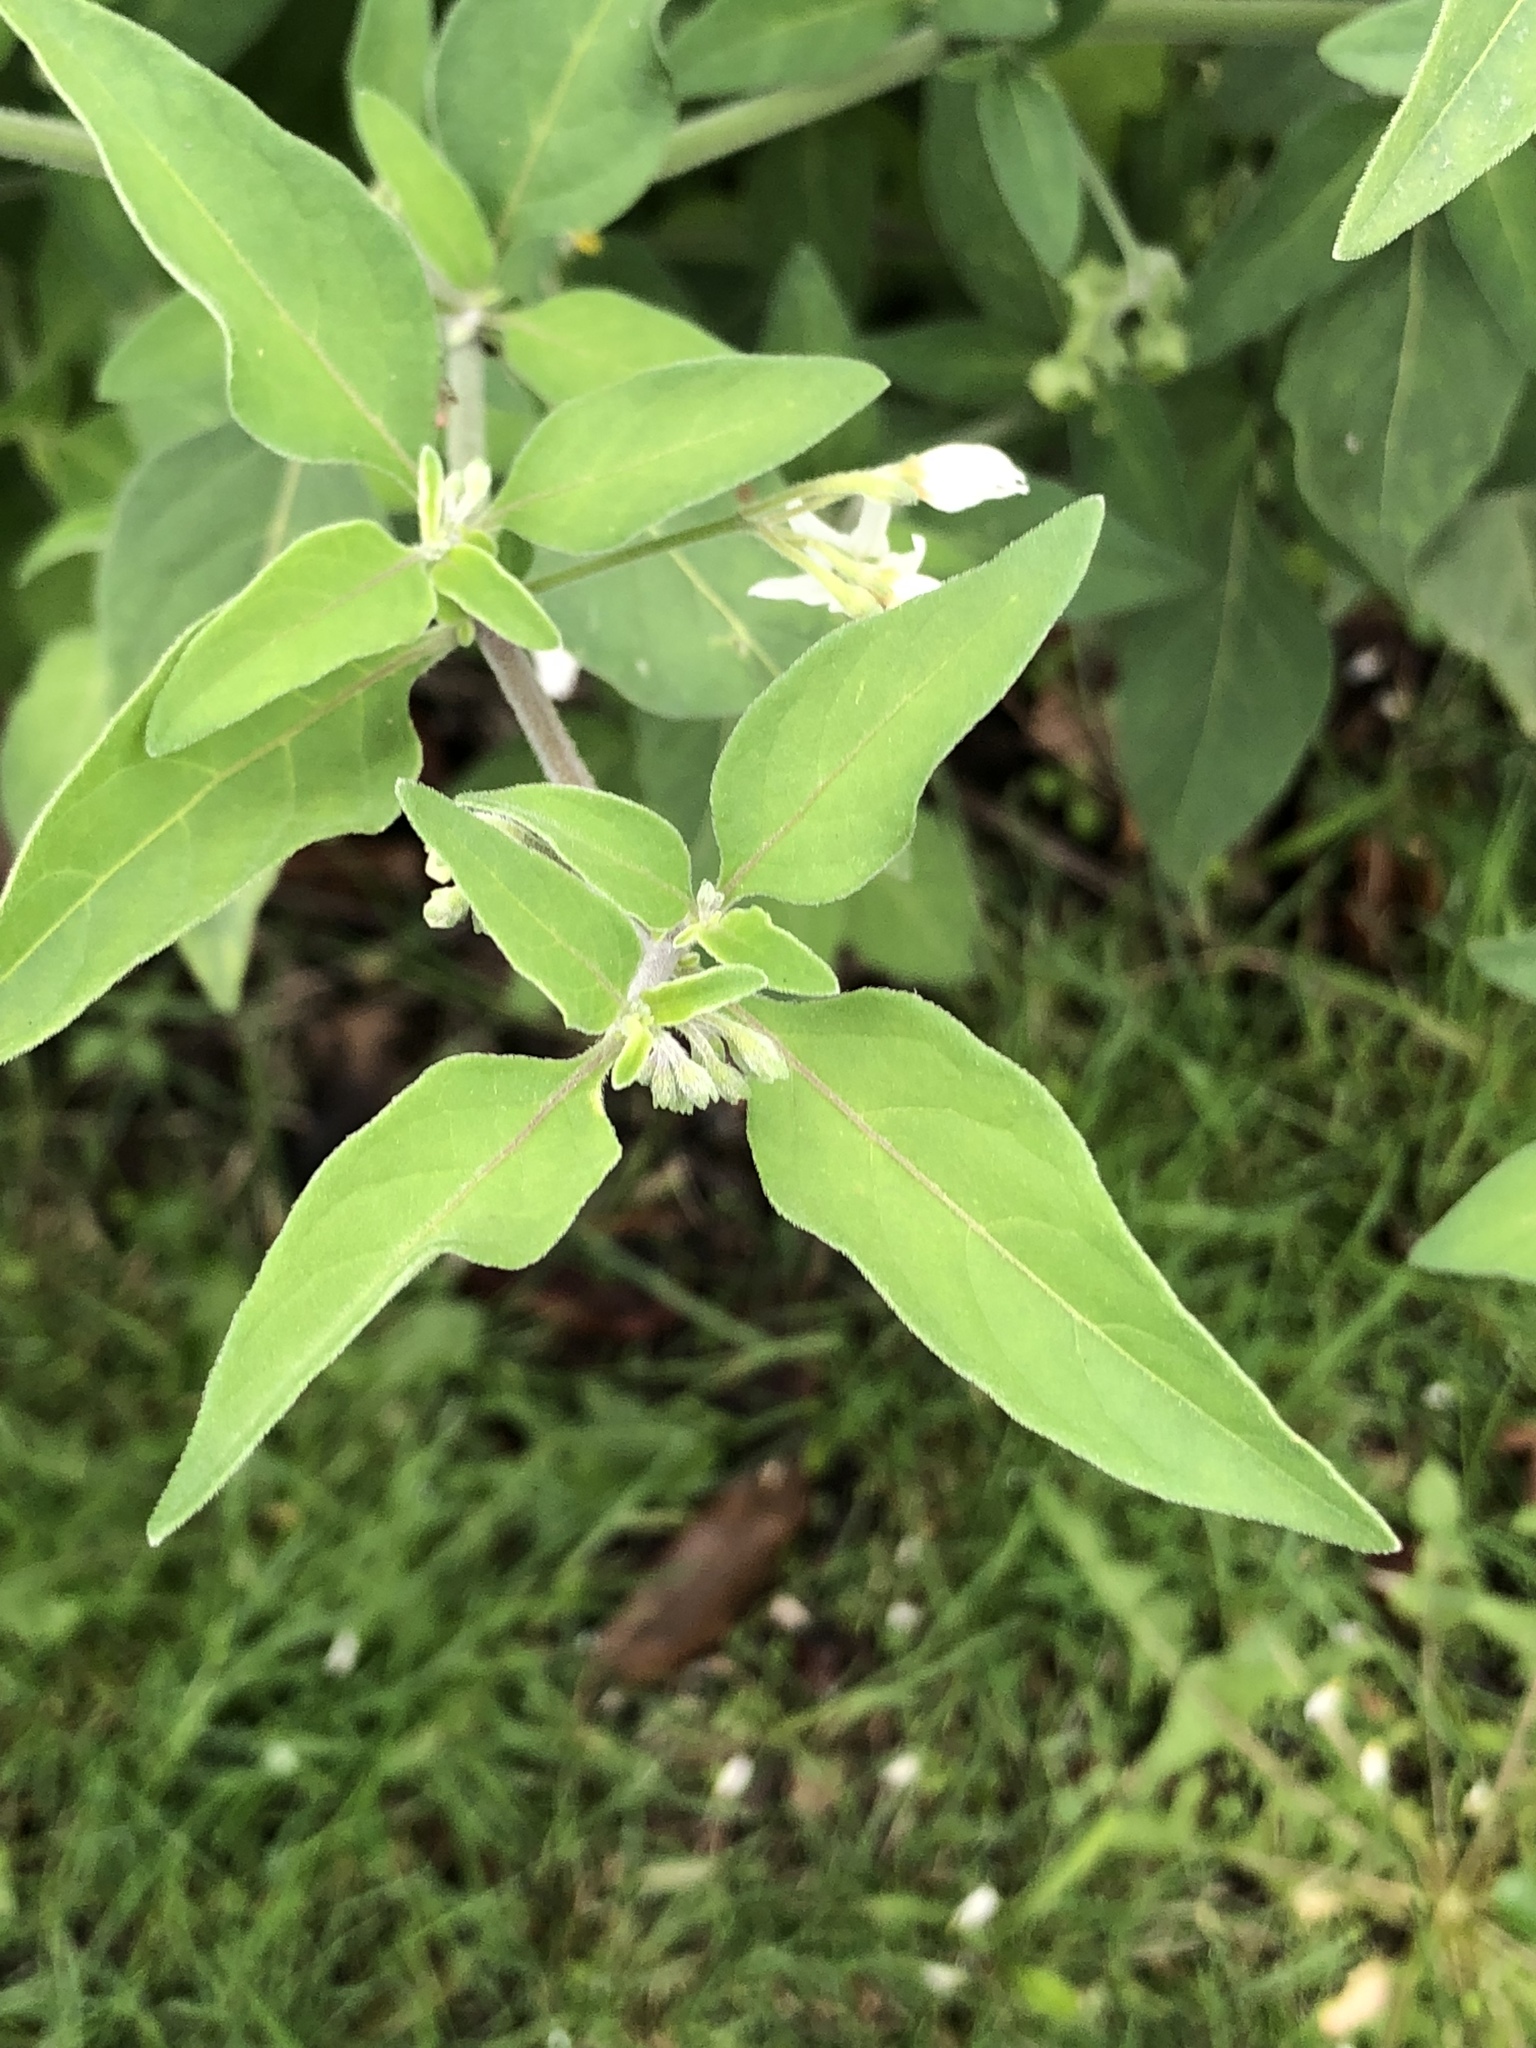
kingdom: Plantae
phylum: Tracheophyta
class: Magnoliopsida
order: Solanales
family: Solanaceae
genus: Solanum
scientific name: Solanum chenopodioides
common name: Tall nightshade
